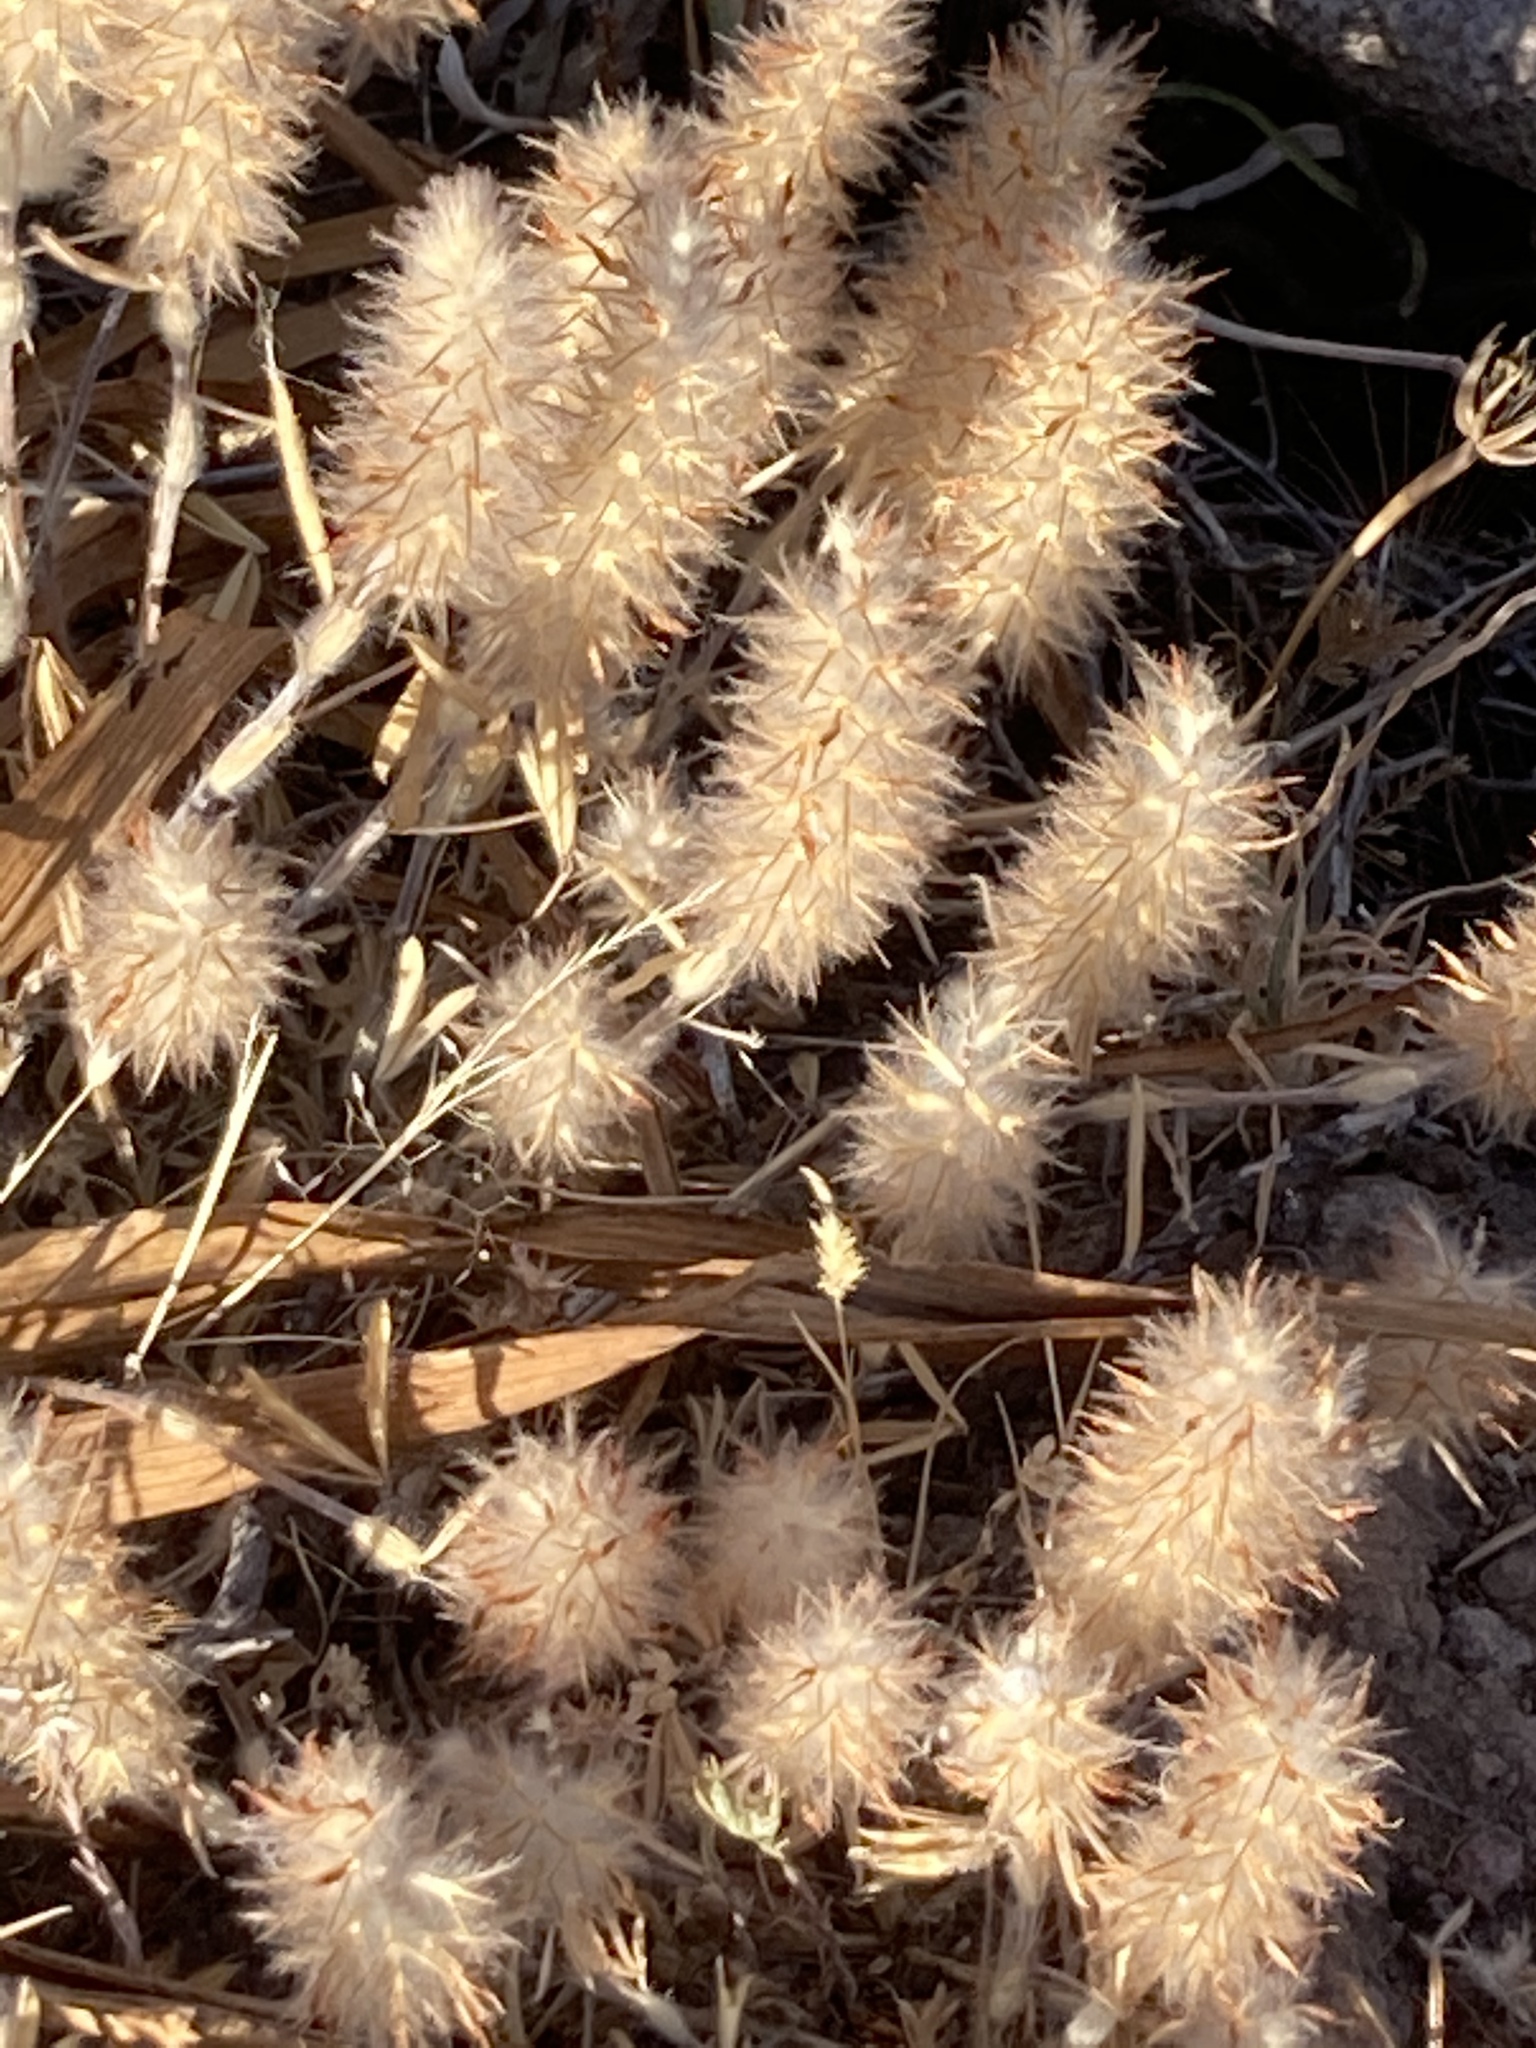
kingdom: Plantae
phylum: Tracheophyta
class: Magnoliopsida
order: Fabales
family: Fabaceae
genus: Trifolium
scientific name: Trifolium angustifolium
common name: Narrow clover
